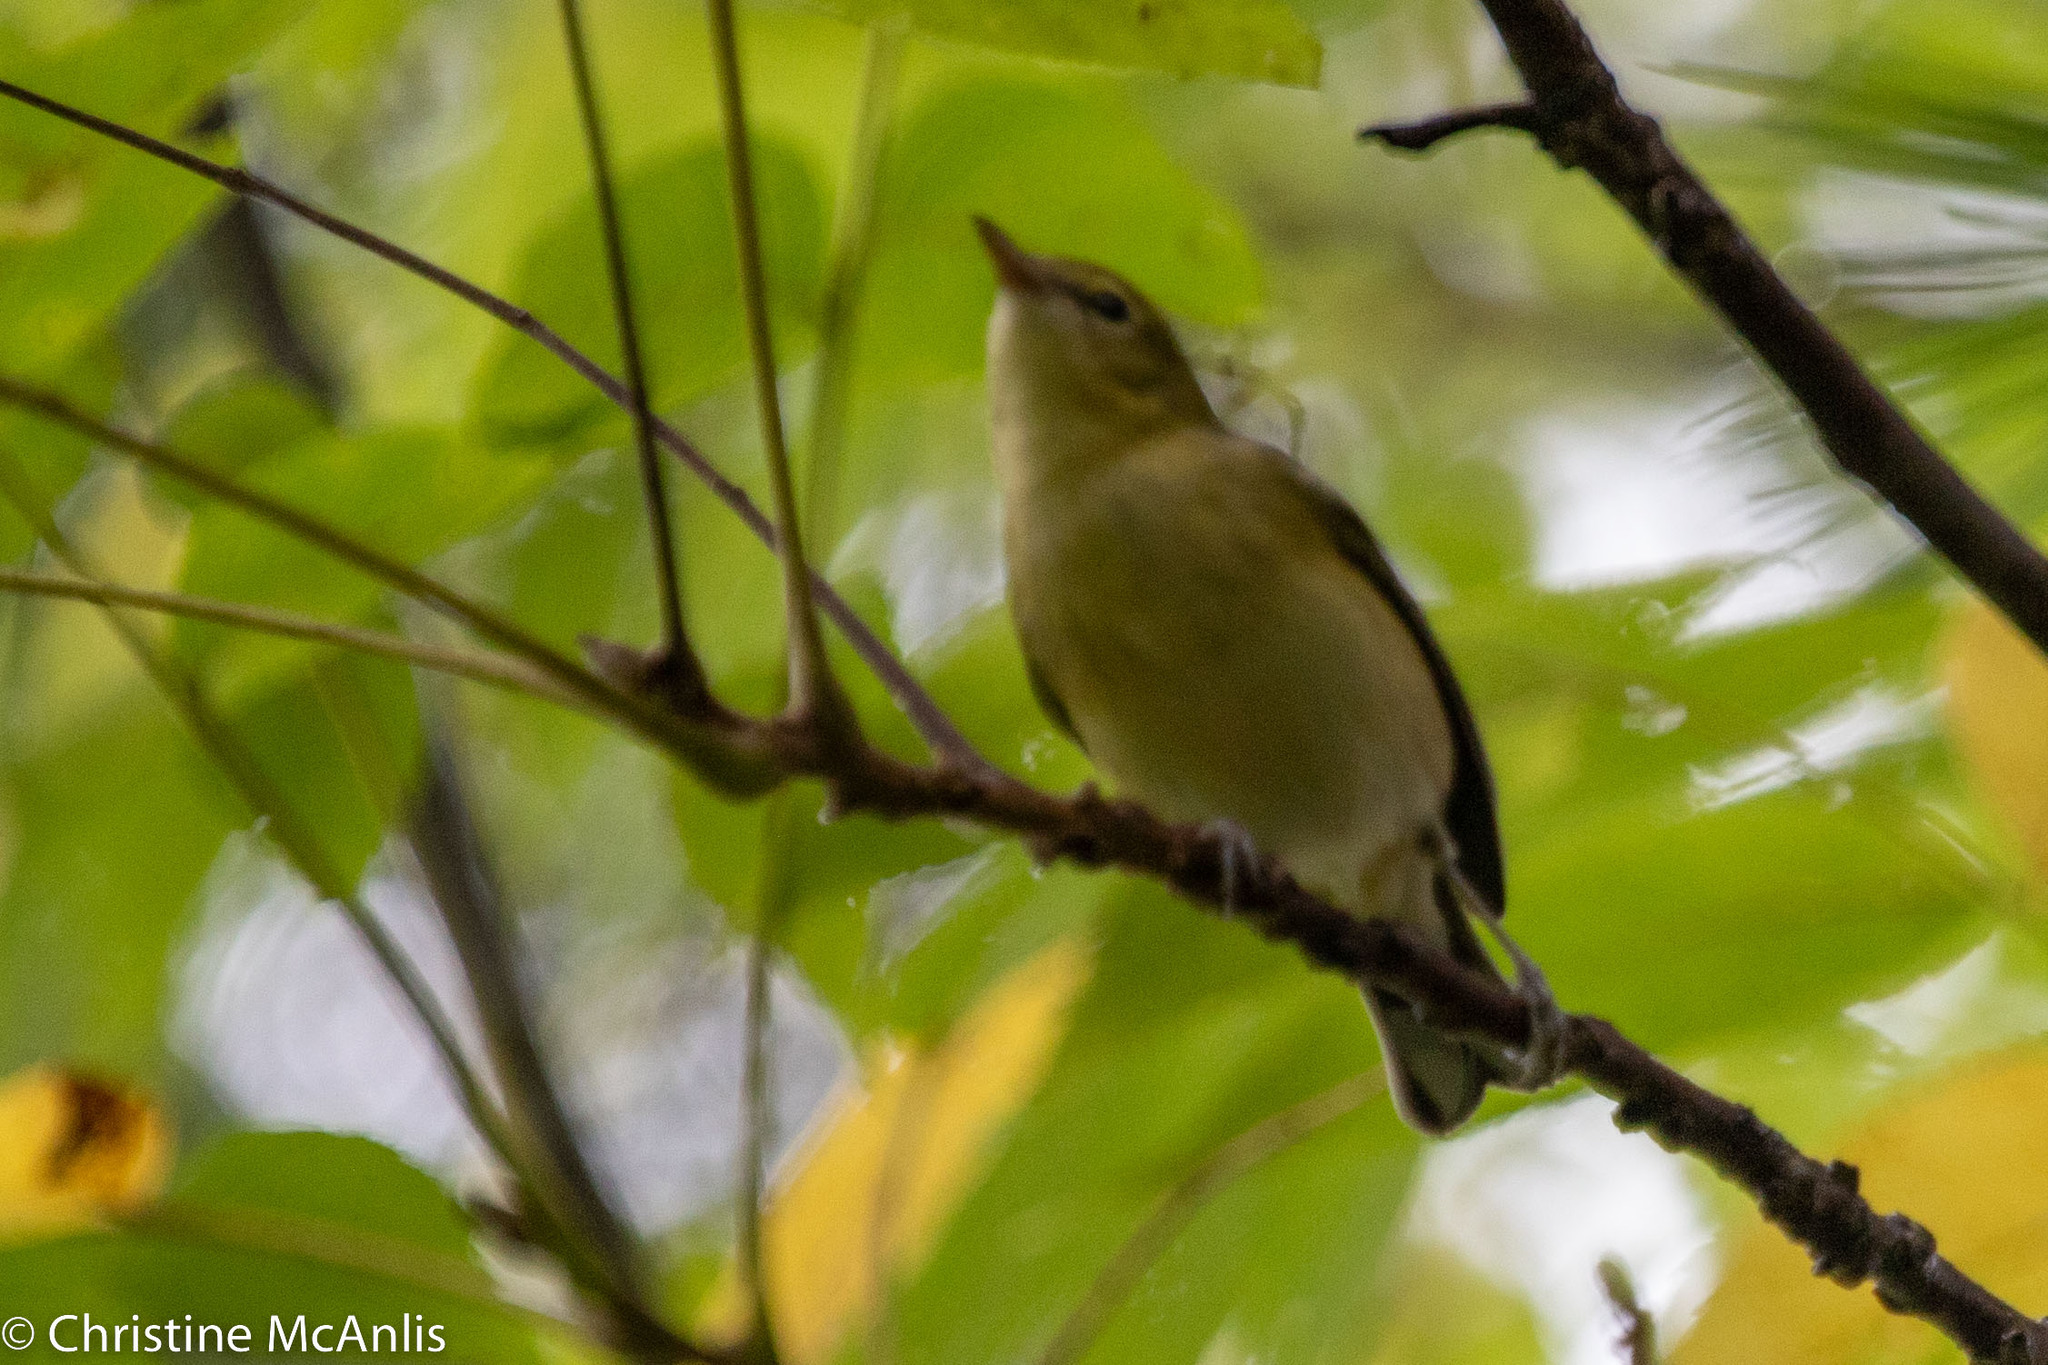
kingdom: Animalia
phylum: Chordata
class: Aves
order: Passeriformes
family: Parulidae
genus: Setophaga
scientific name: Setophaga castanea
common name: Bay-breasted warbler
